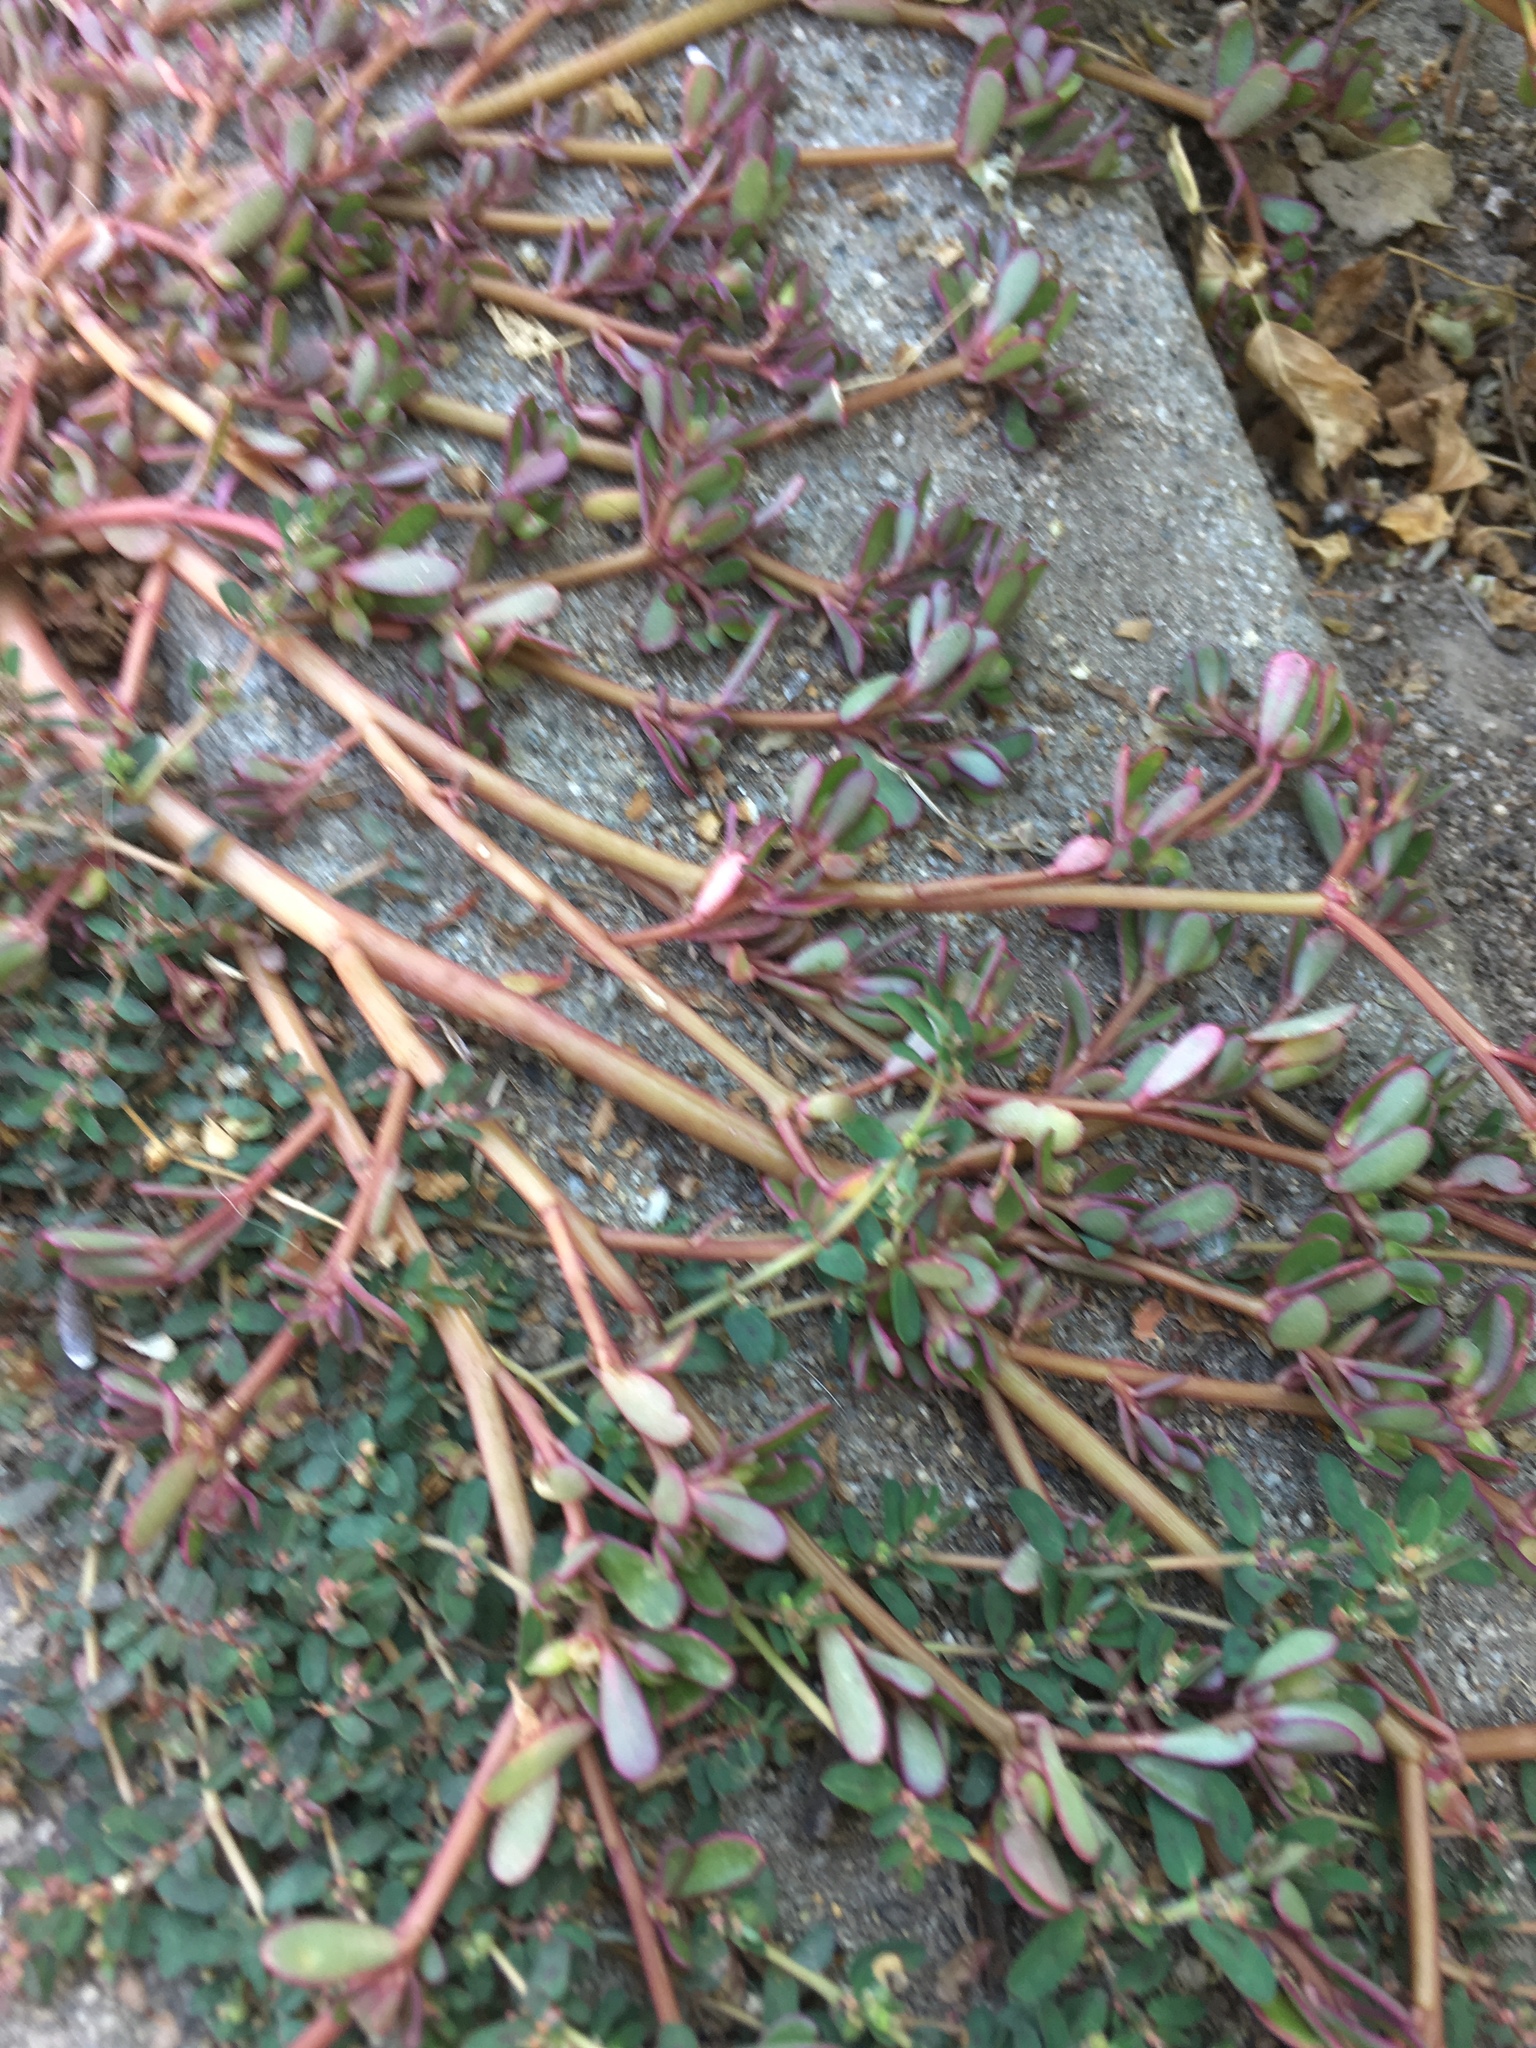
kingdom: Plantae
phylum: Tracheophyta
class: Magnoliopsida
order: Caryophyllales
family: Portulacaceae
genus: Portulaca
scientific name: Portulaca oleracea
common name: Common purslane
